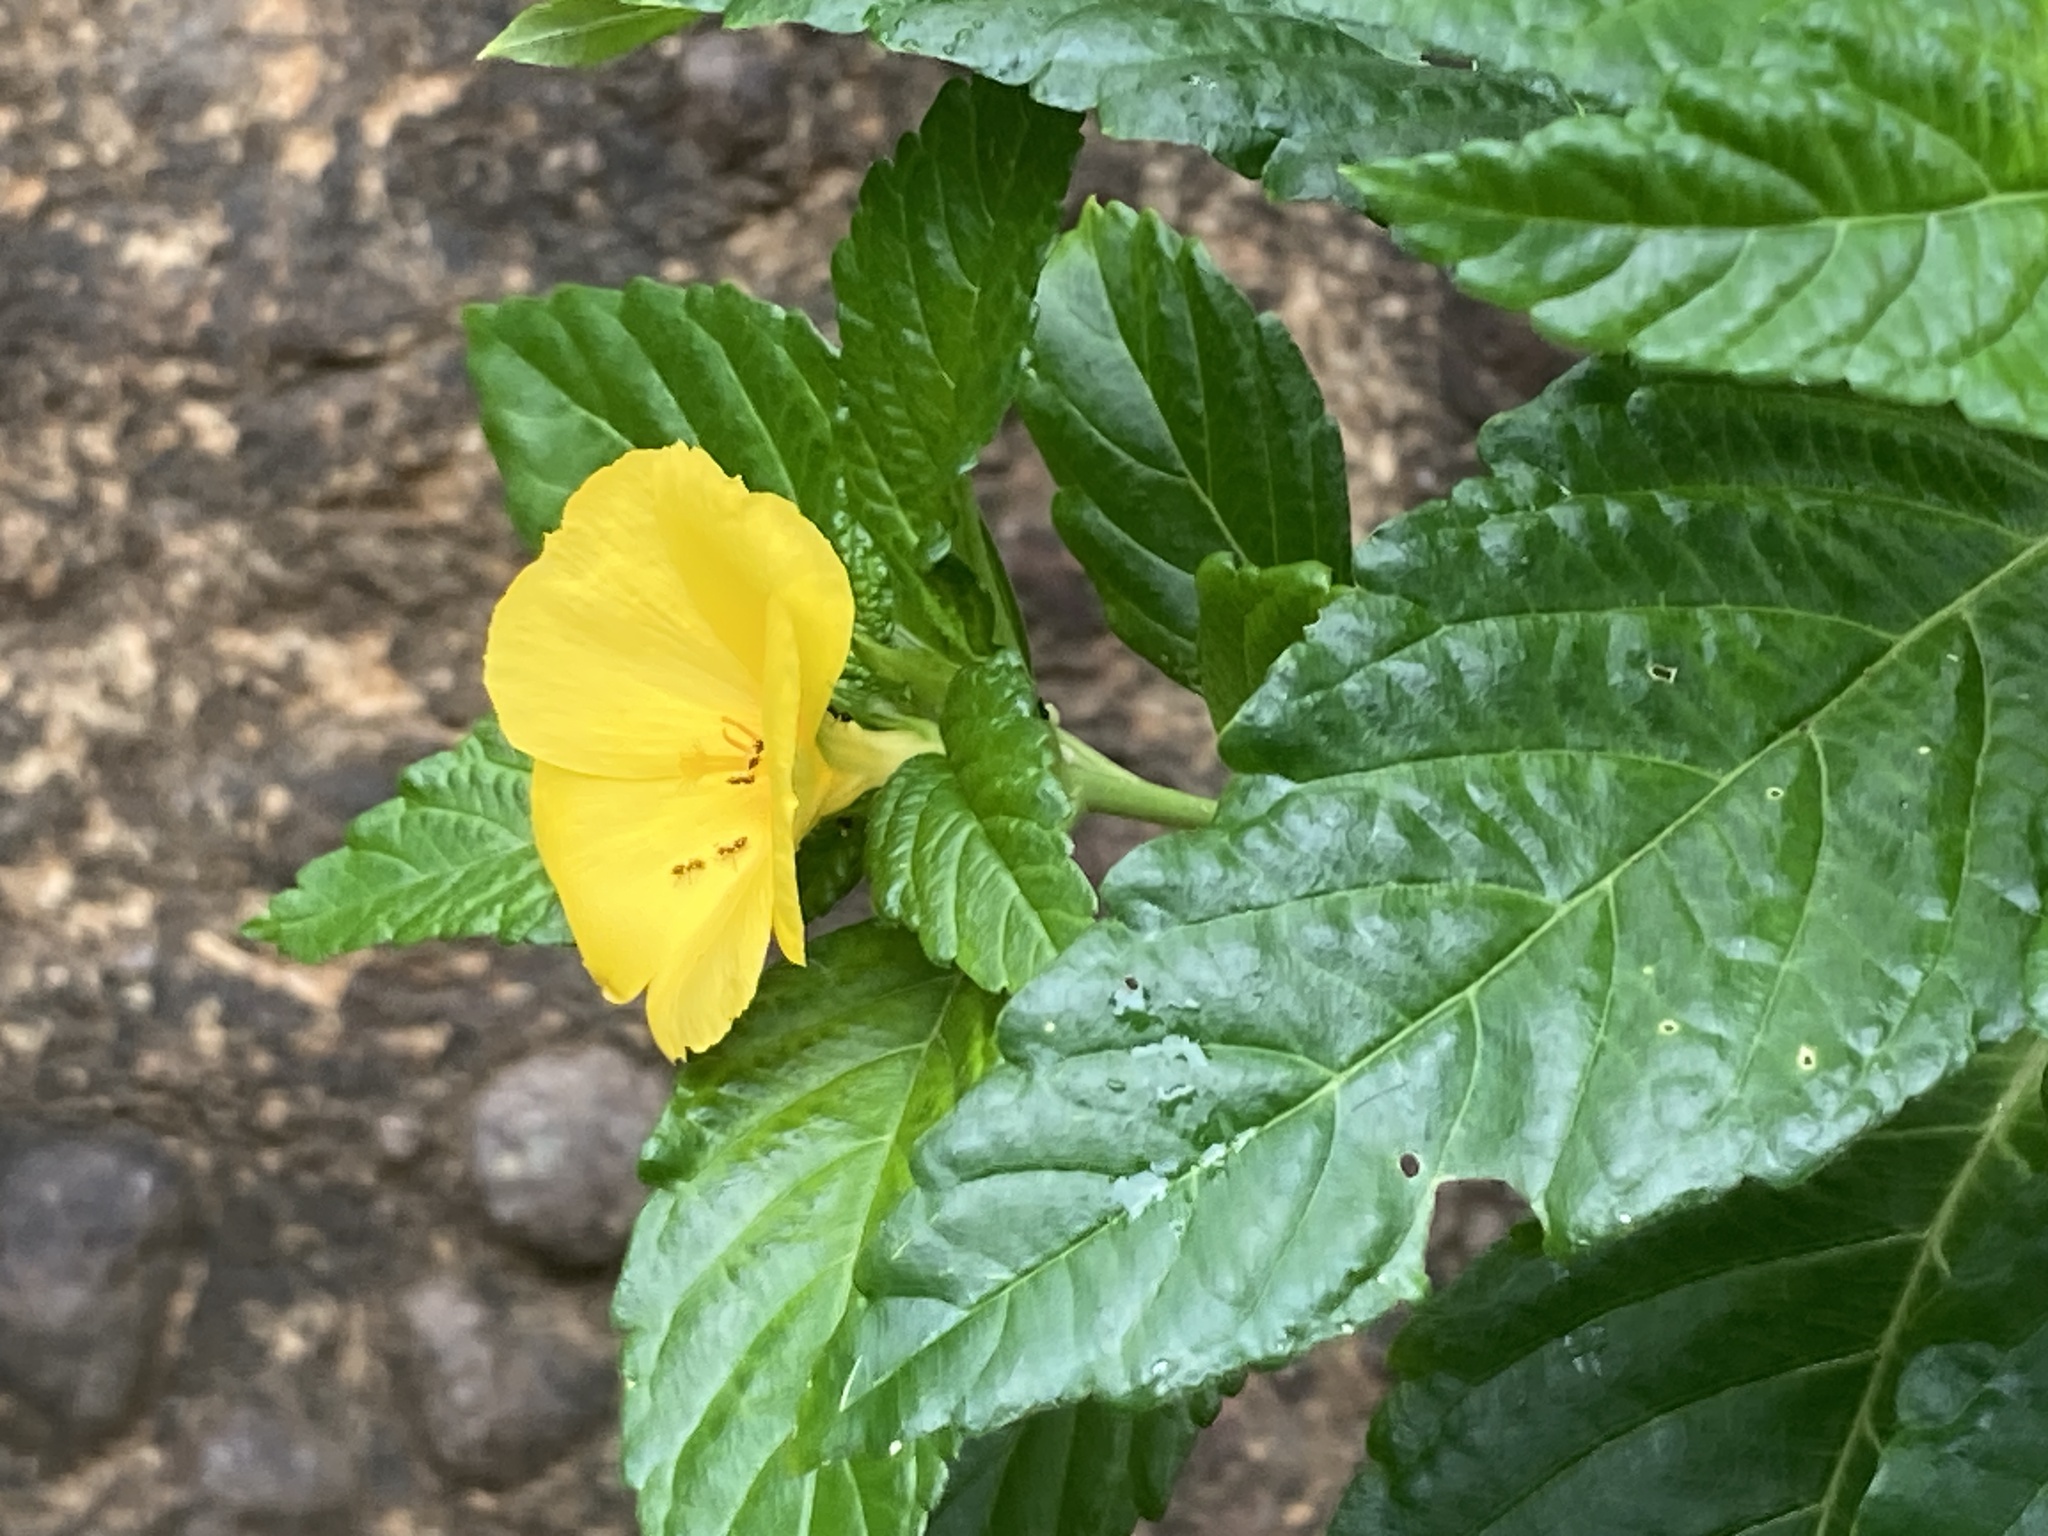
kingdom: Plantae
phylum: Tracheophyta
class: Magnoliopsida
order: Malpighiales
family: Turneraceae
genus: Turnera
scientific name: Turnera ulmifolia
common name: Ramgoat dashalong
